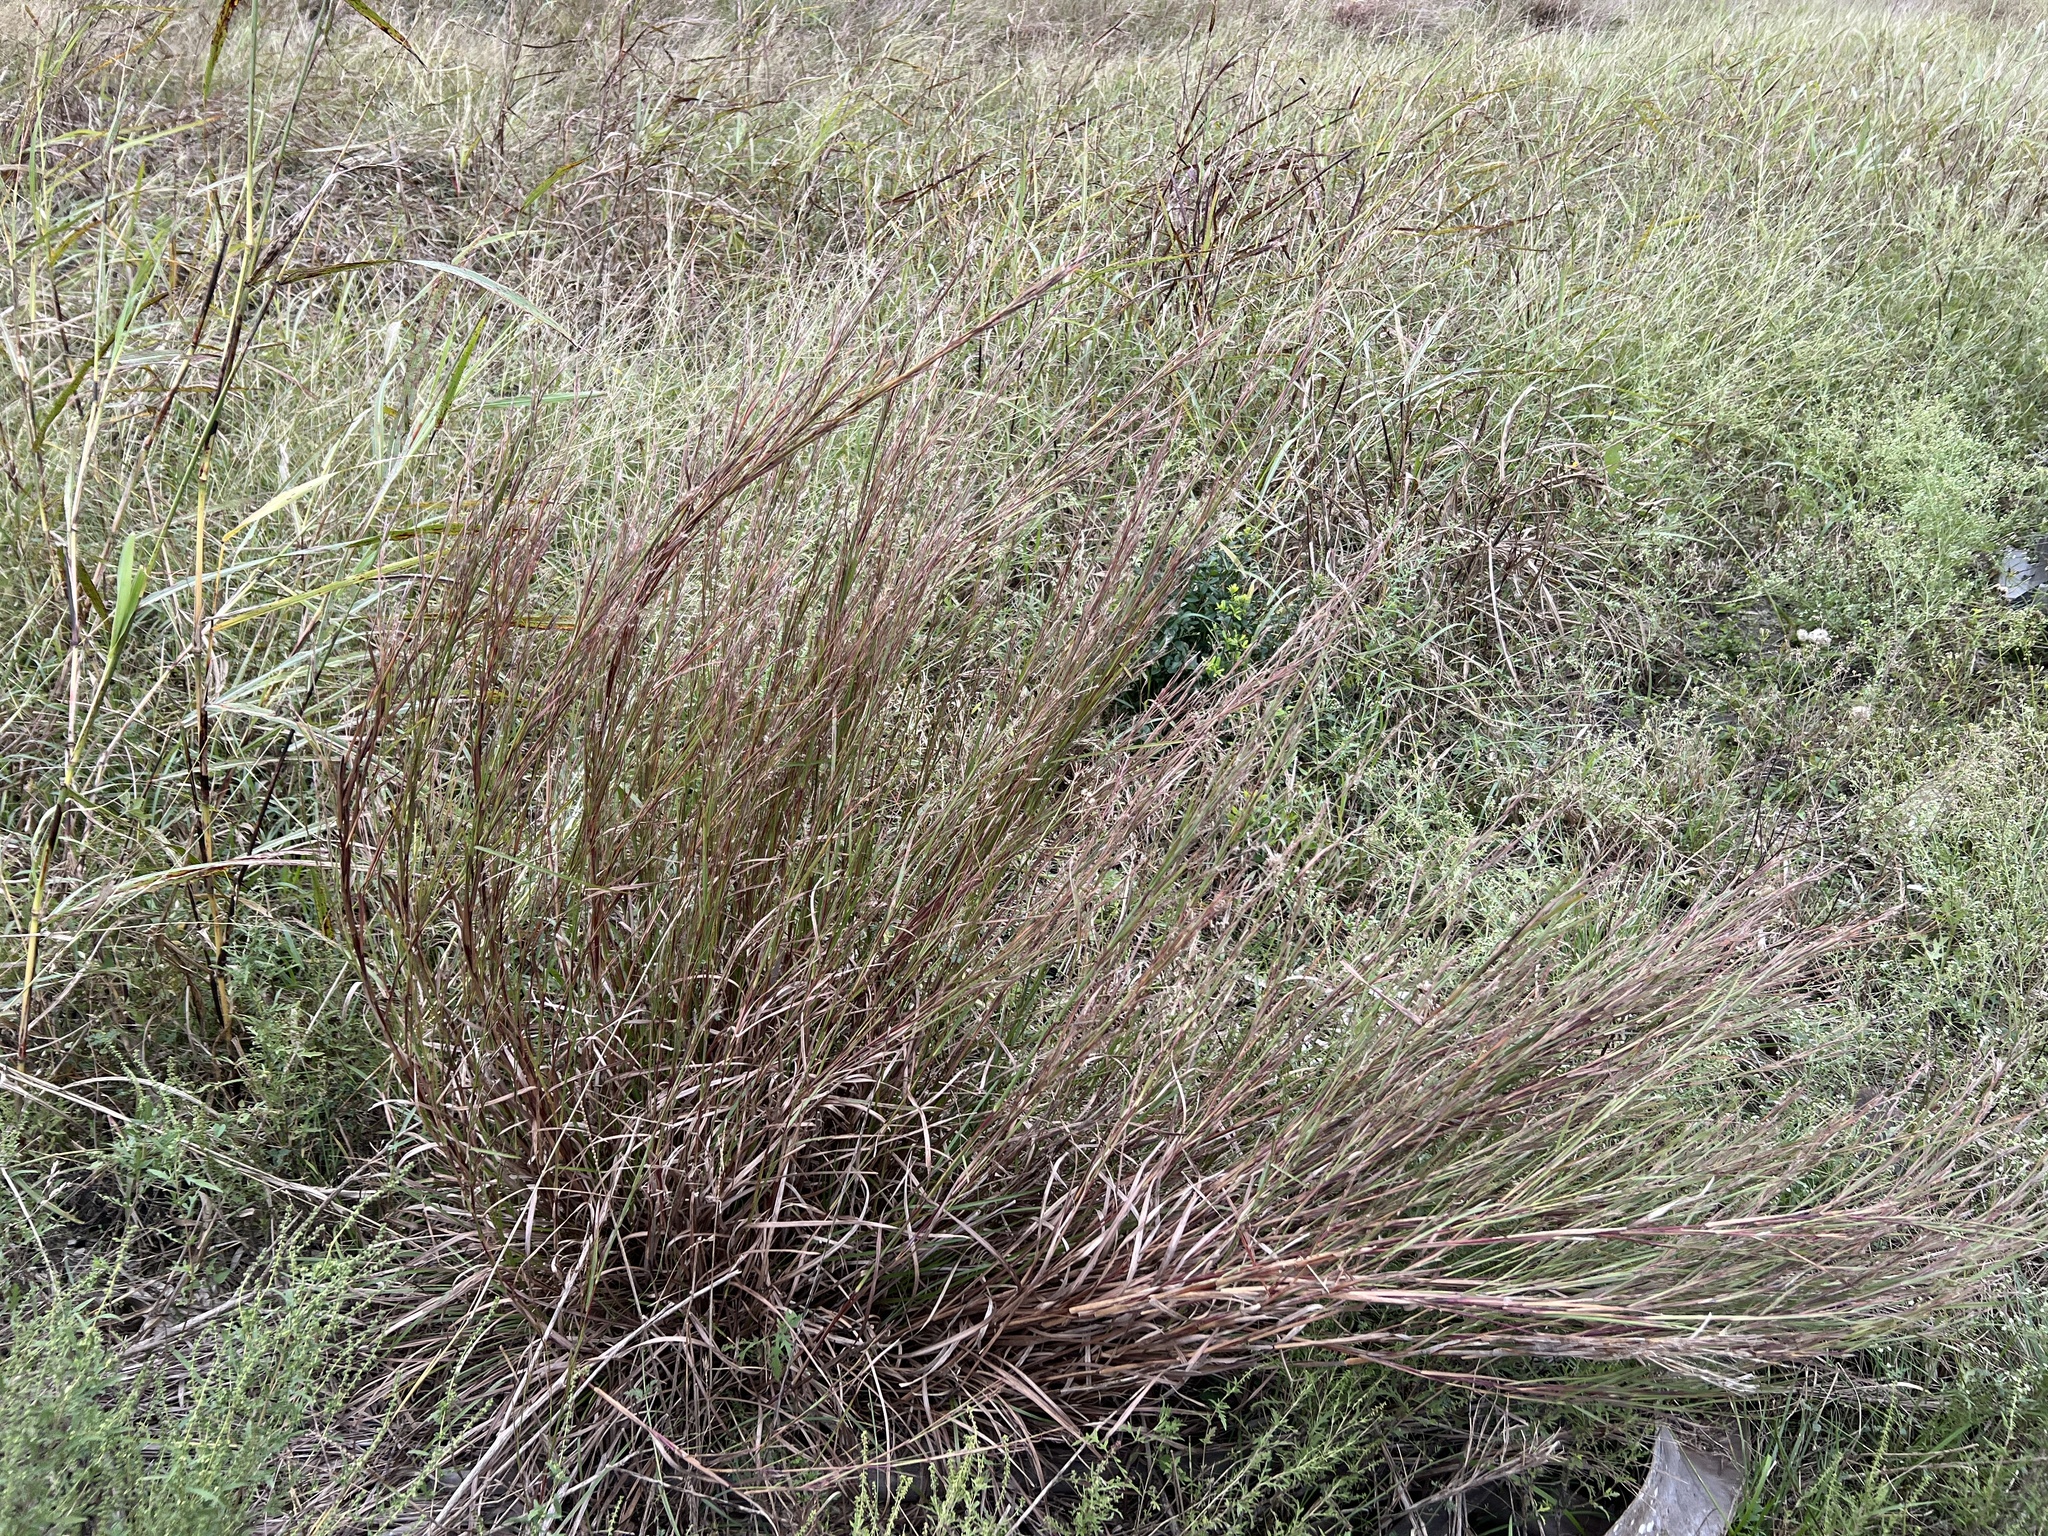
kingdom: Plantae
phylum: Tracheophyta
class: Liliopsida
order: Poales
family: Poaceae
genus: Schizachyrium
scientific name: Schizachyrium scoparium
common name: Little bluestem
